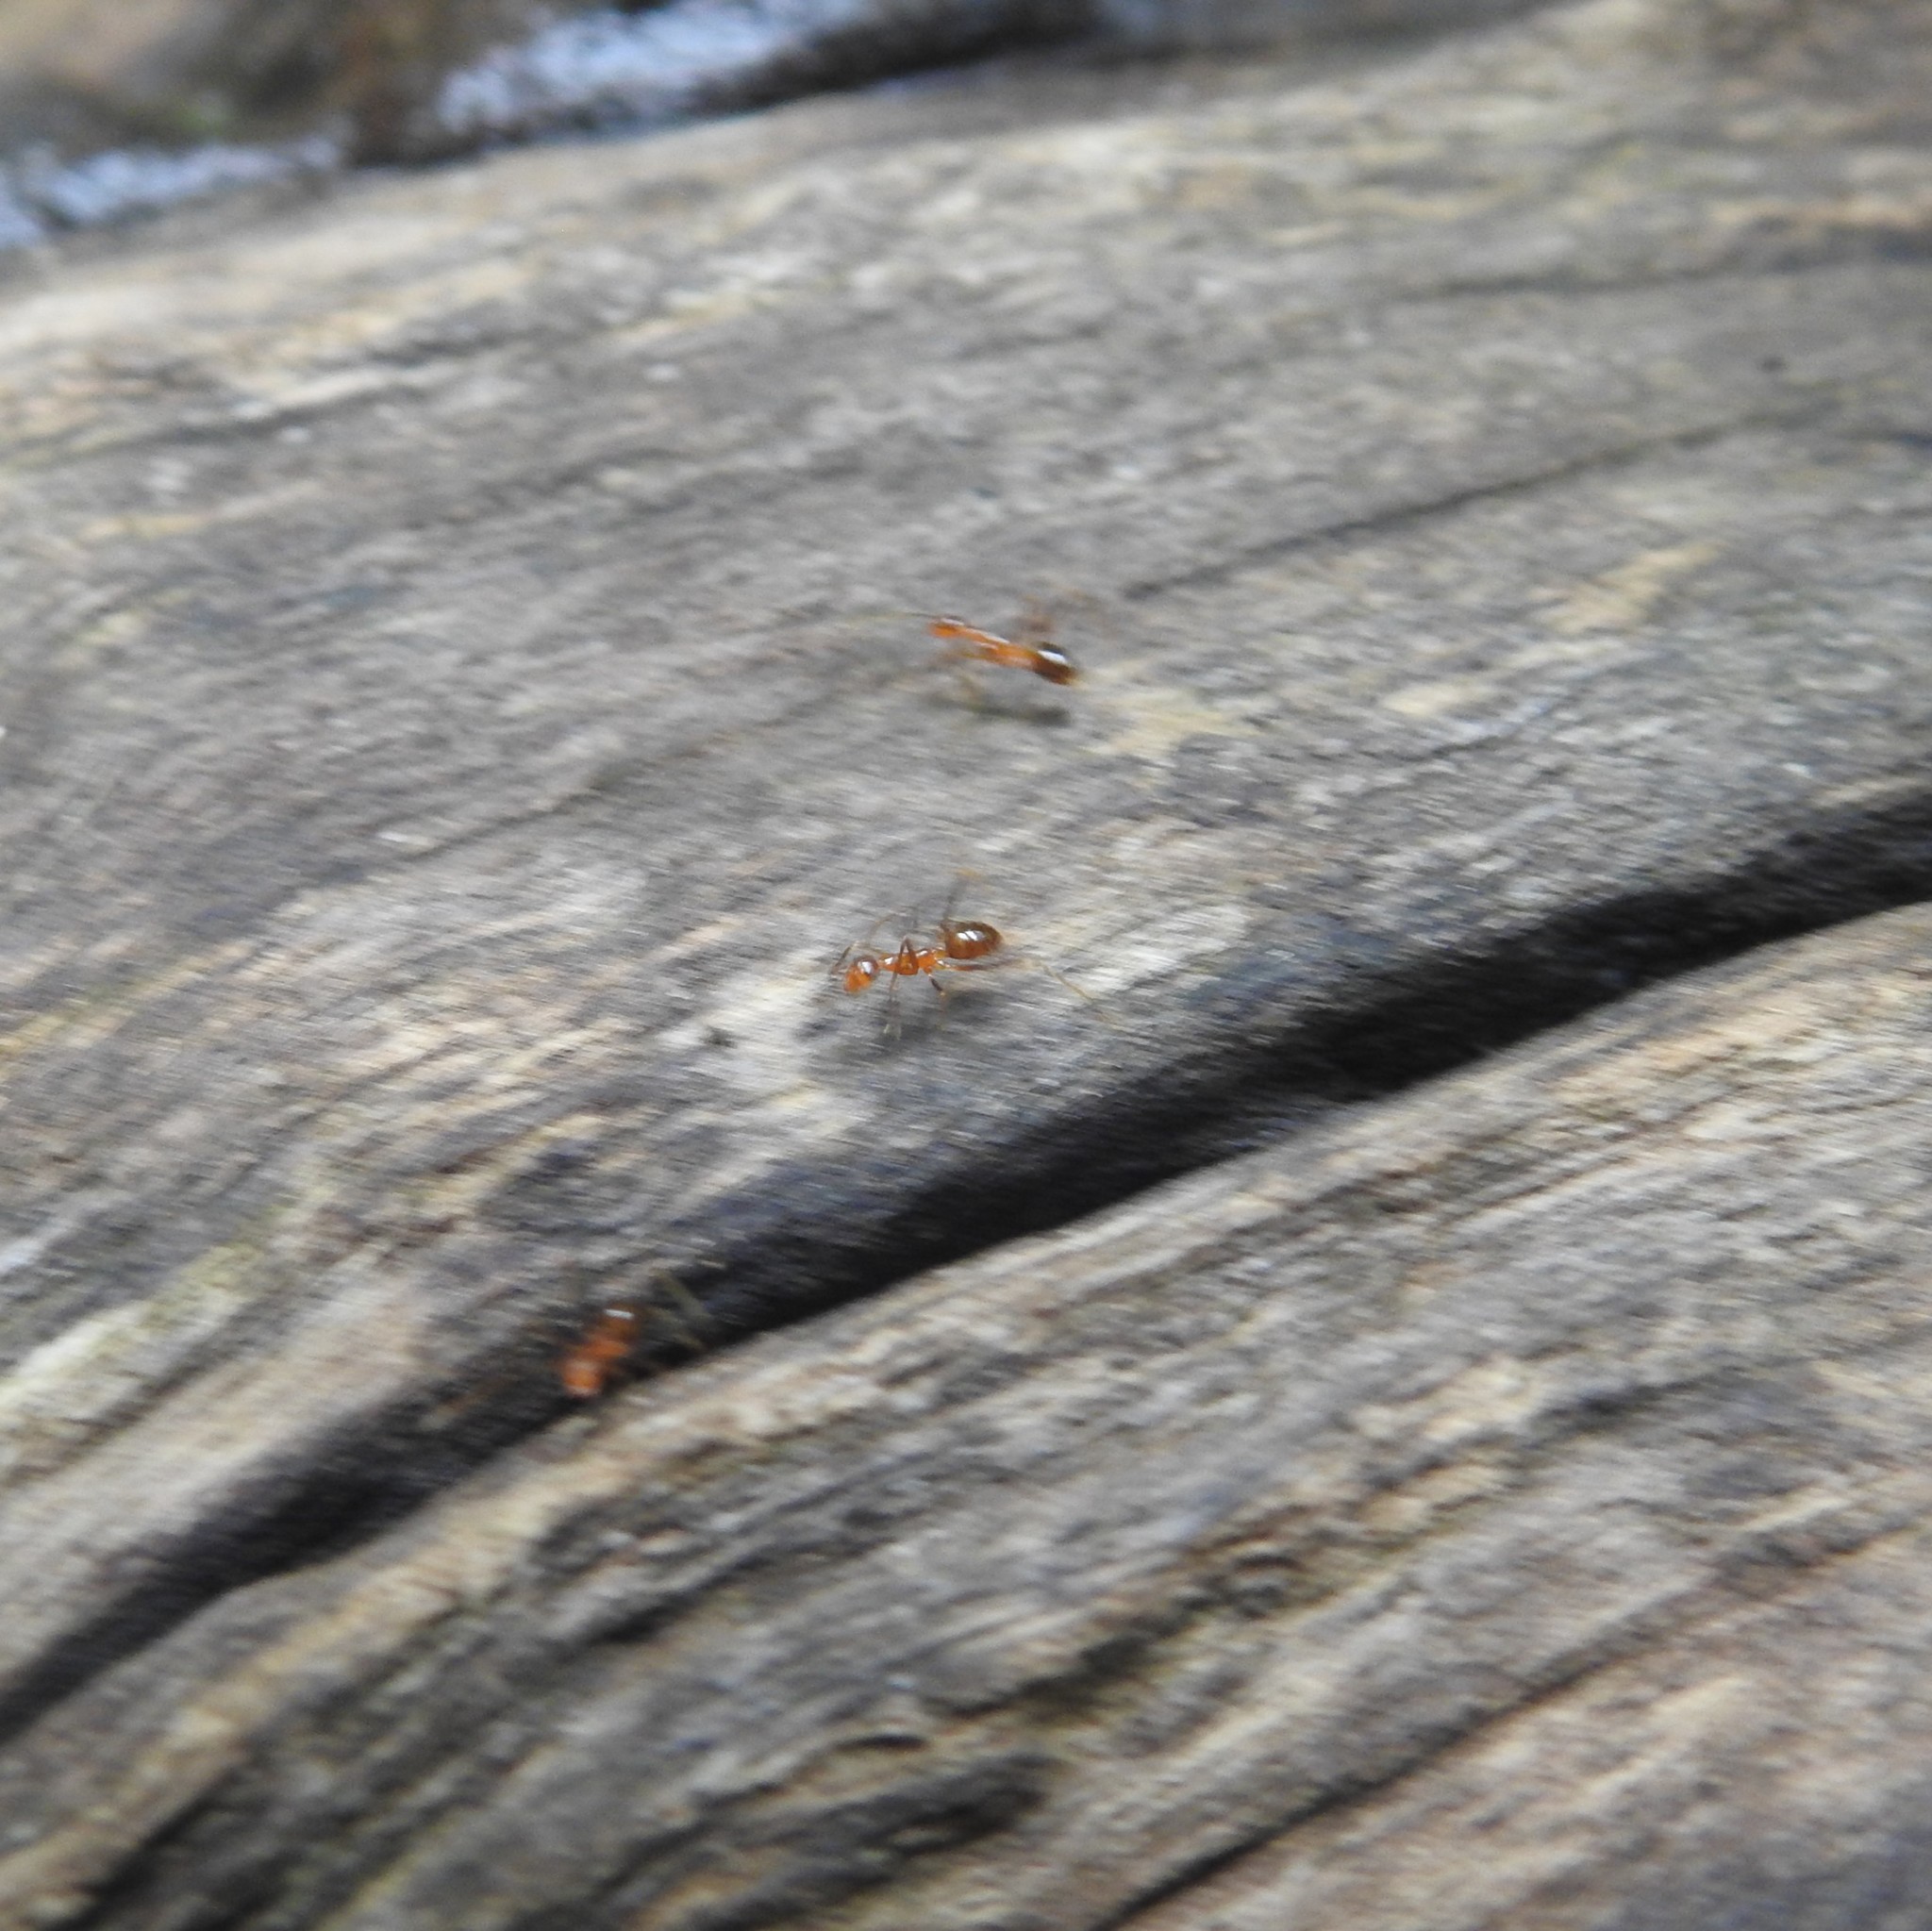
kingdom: Animalia
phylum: Arthropoda
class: Insecta
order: Hymenoptera
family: Formicidae
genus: Anoplolepis
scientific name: Anoplolepis gracilipes
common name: Ant
